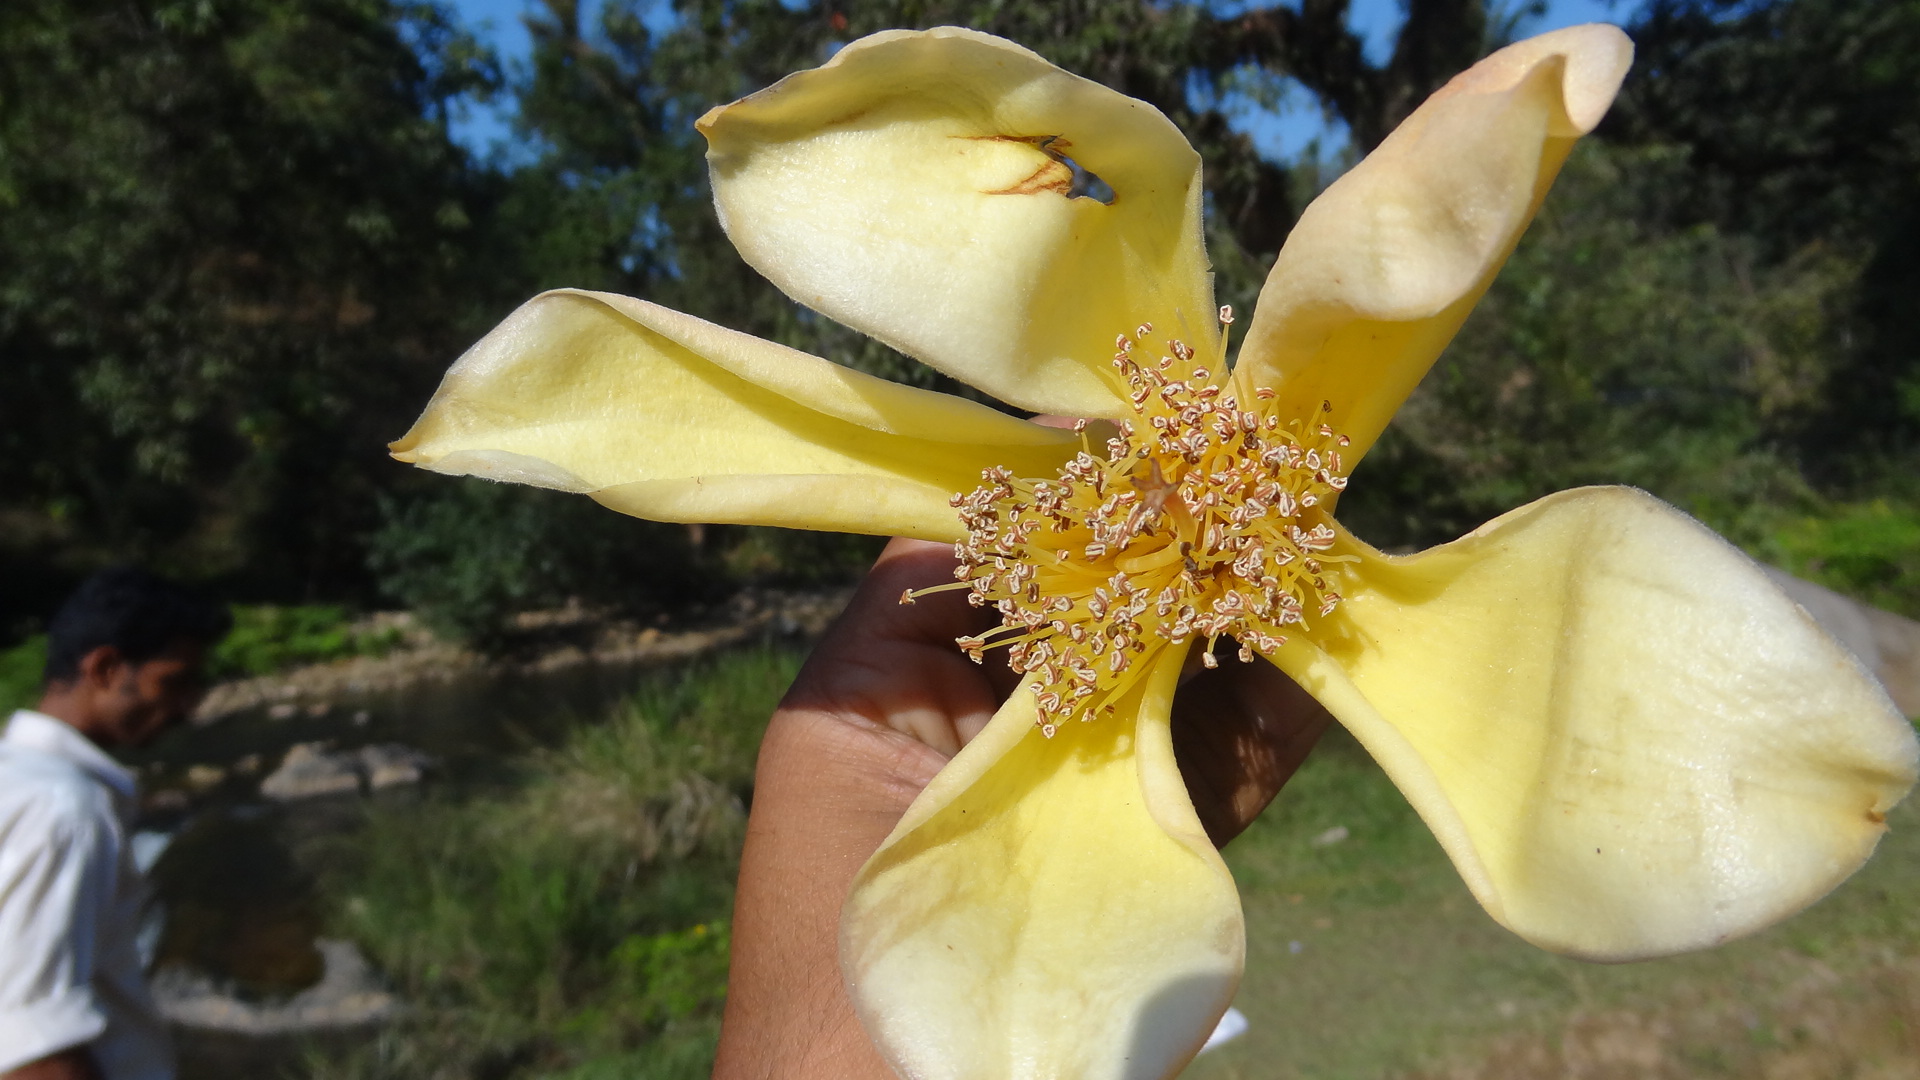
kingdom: Plantae
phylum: Tracheophyta
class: Magnoliopsida
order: Malvales
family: Malvaceae
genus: Bombax
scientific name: Bombax insigne
